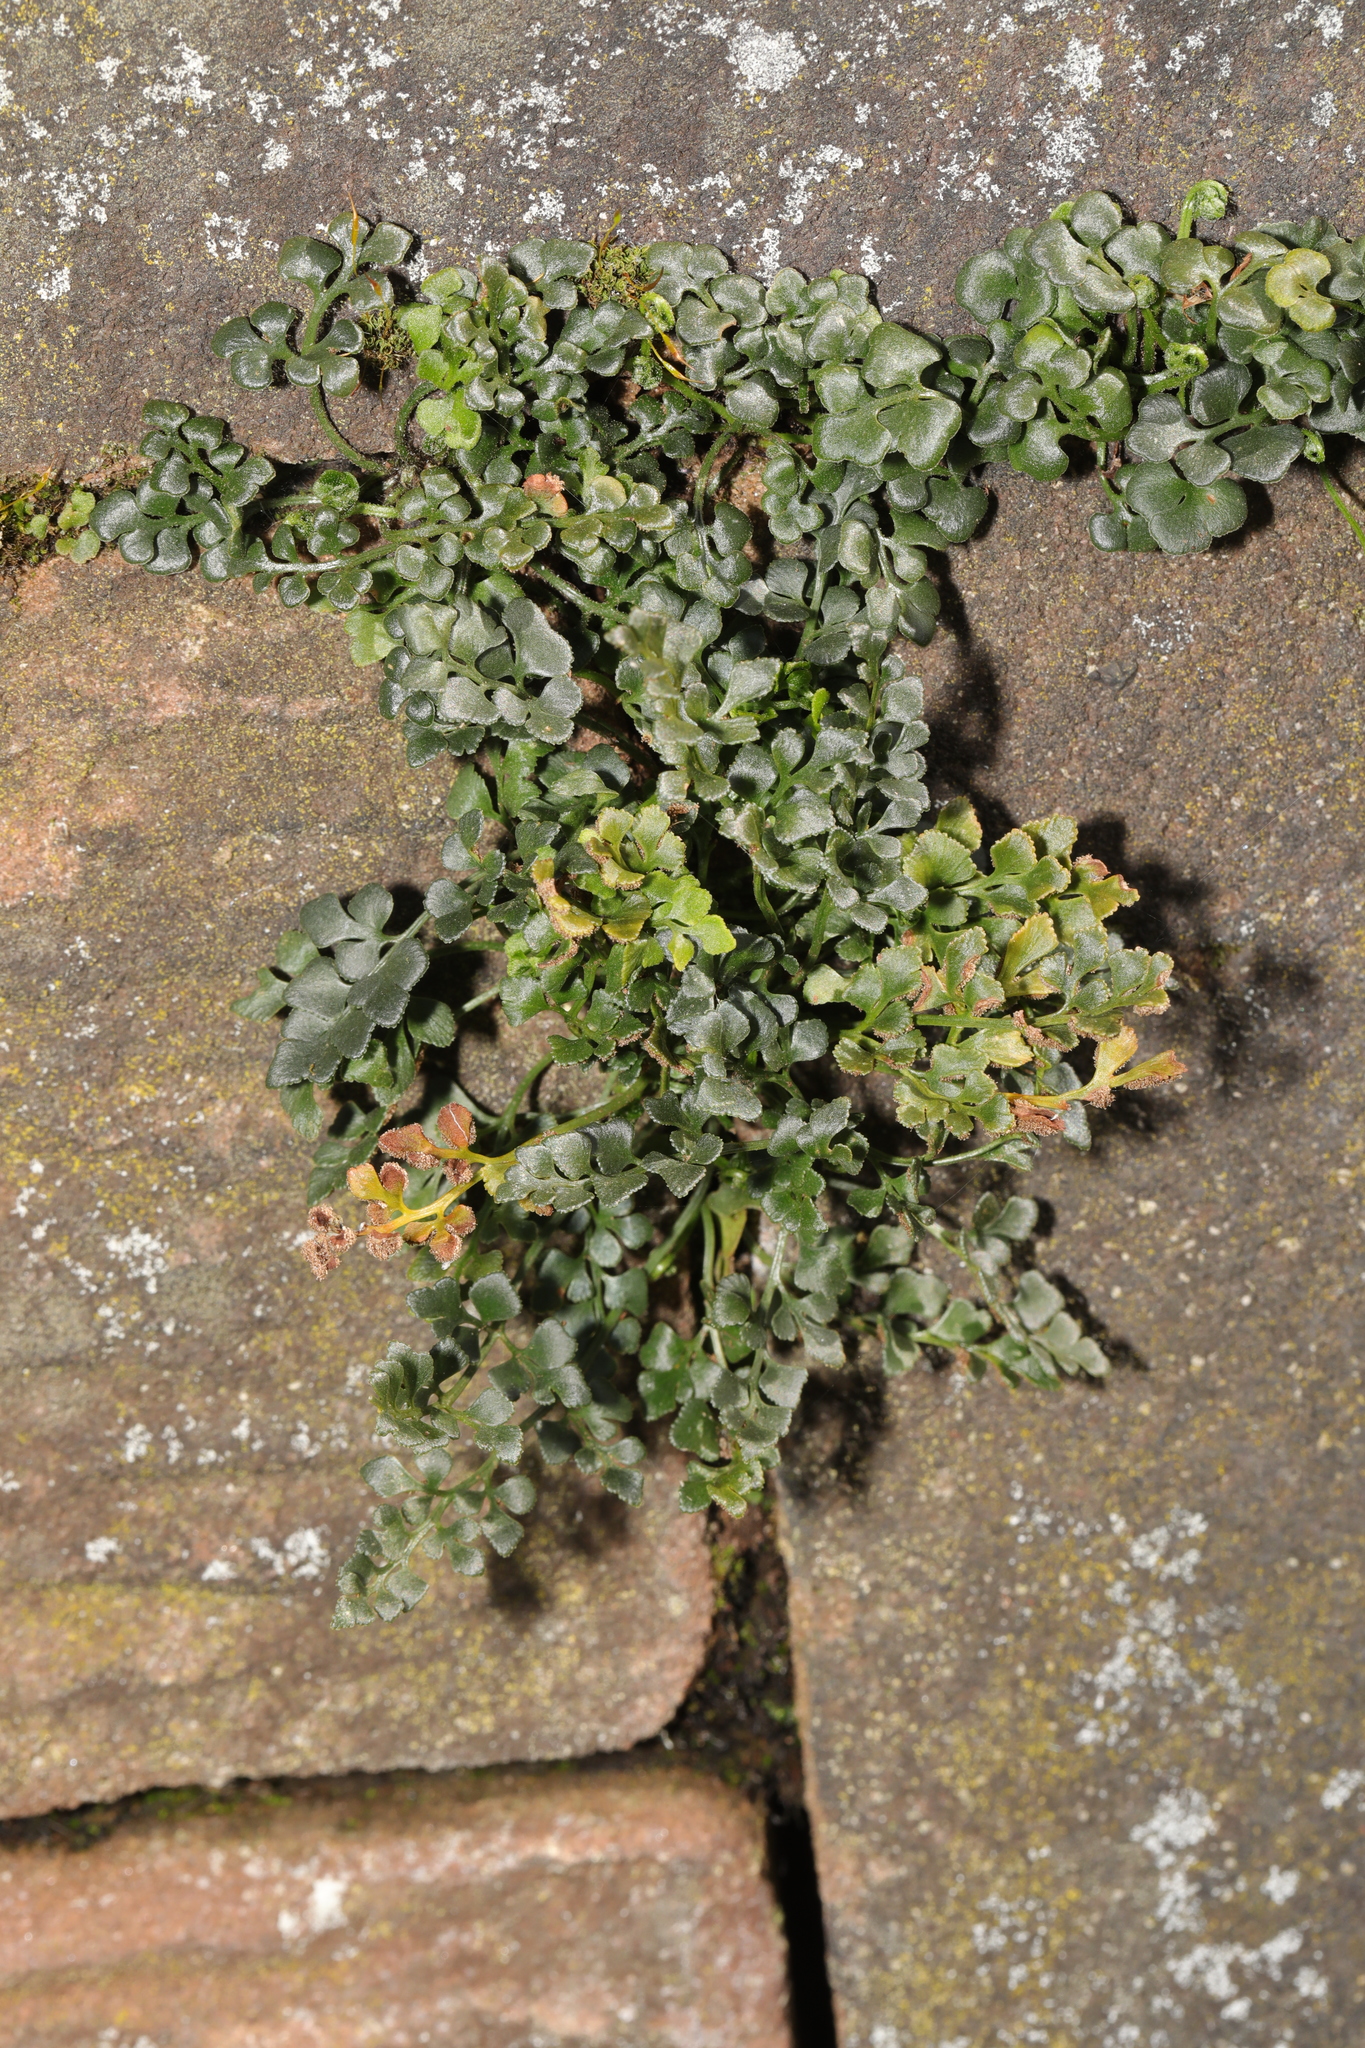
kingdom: Plantae
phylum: Tracheophyta
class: Polypodiopsida
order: Polypodiales
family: Aspleniaceae
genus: Asplenium
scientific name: Asplenium ruta-muraria
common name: Wall-rue
